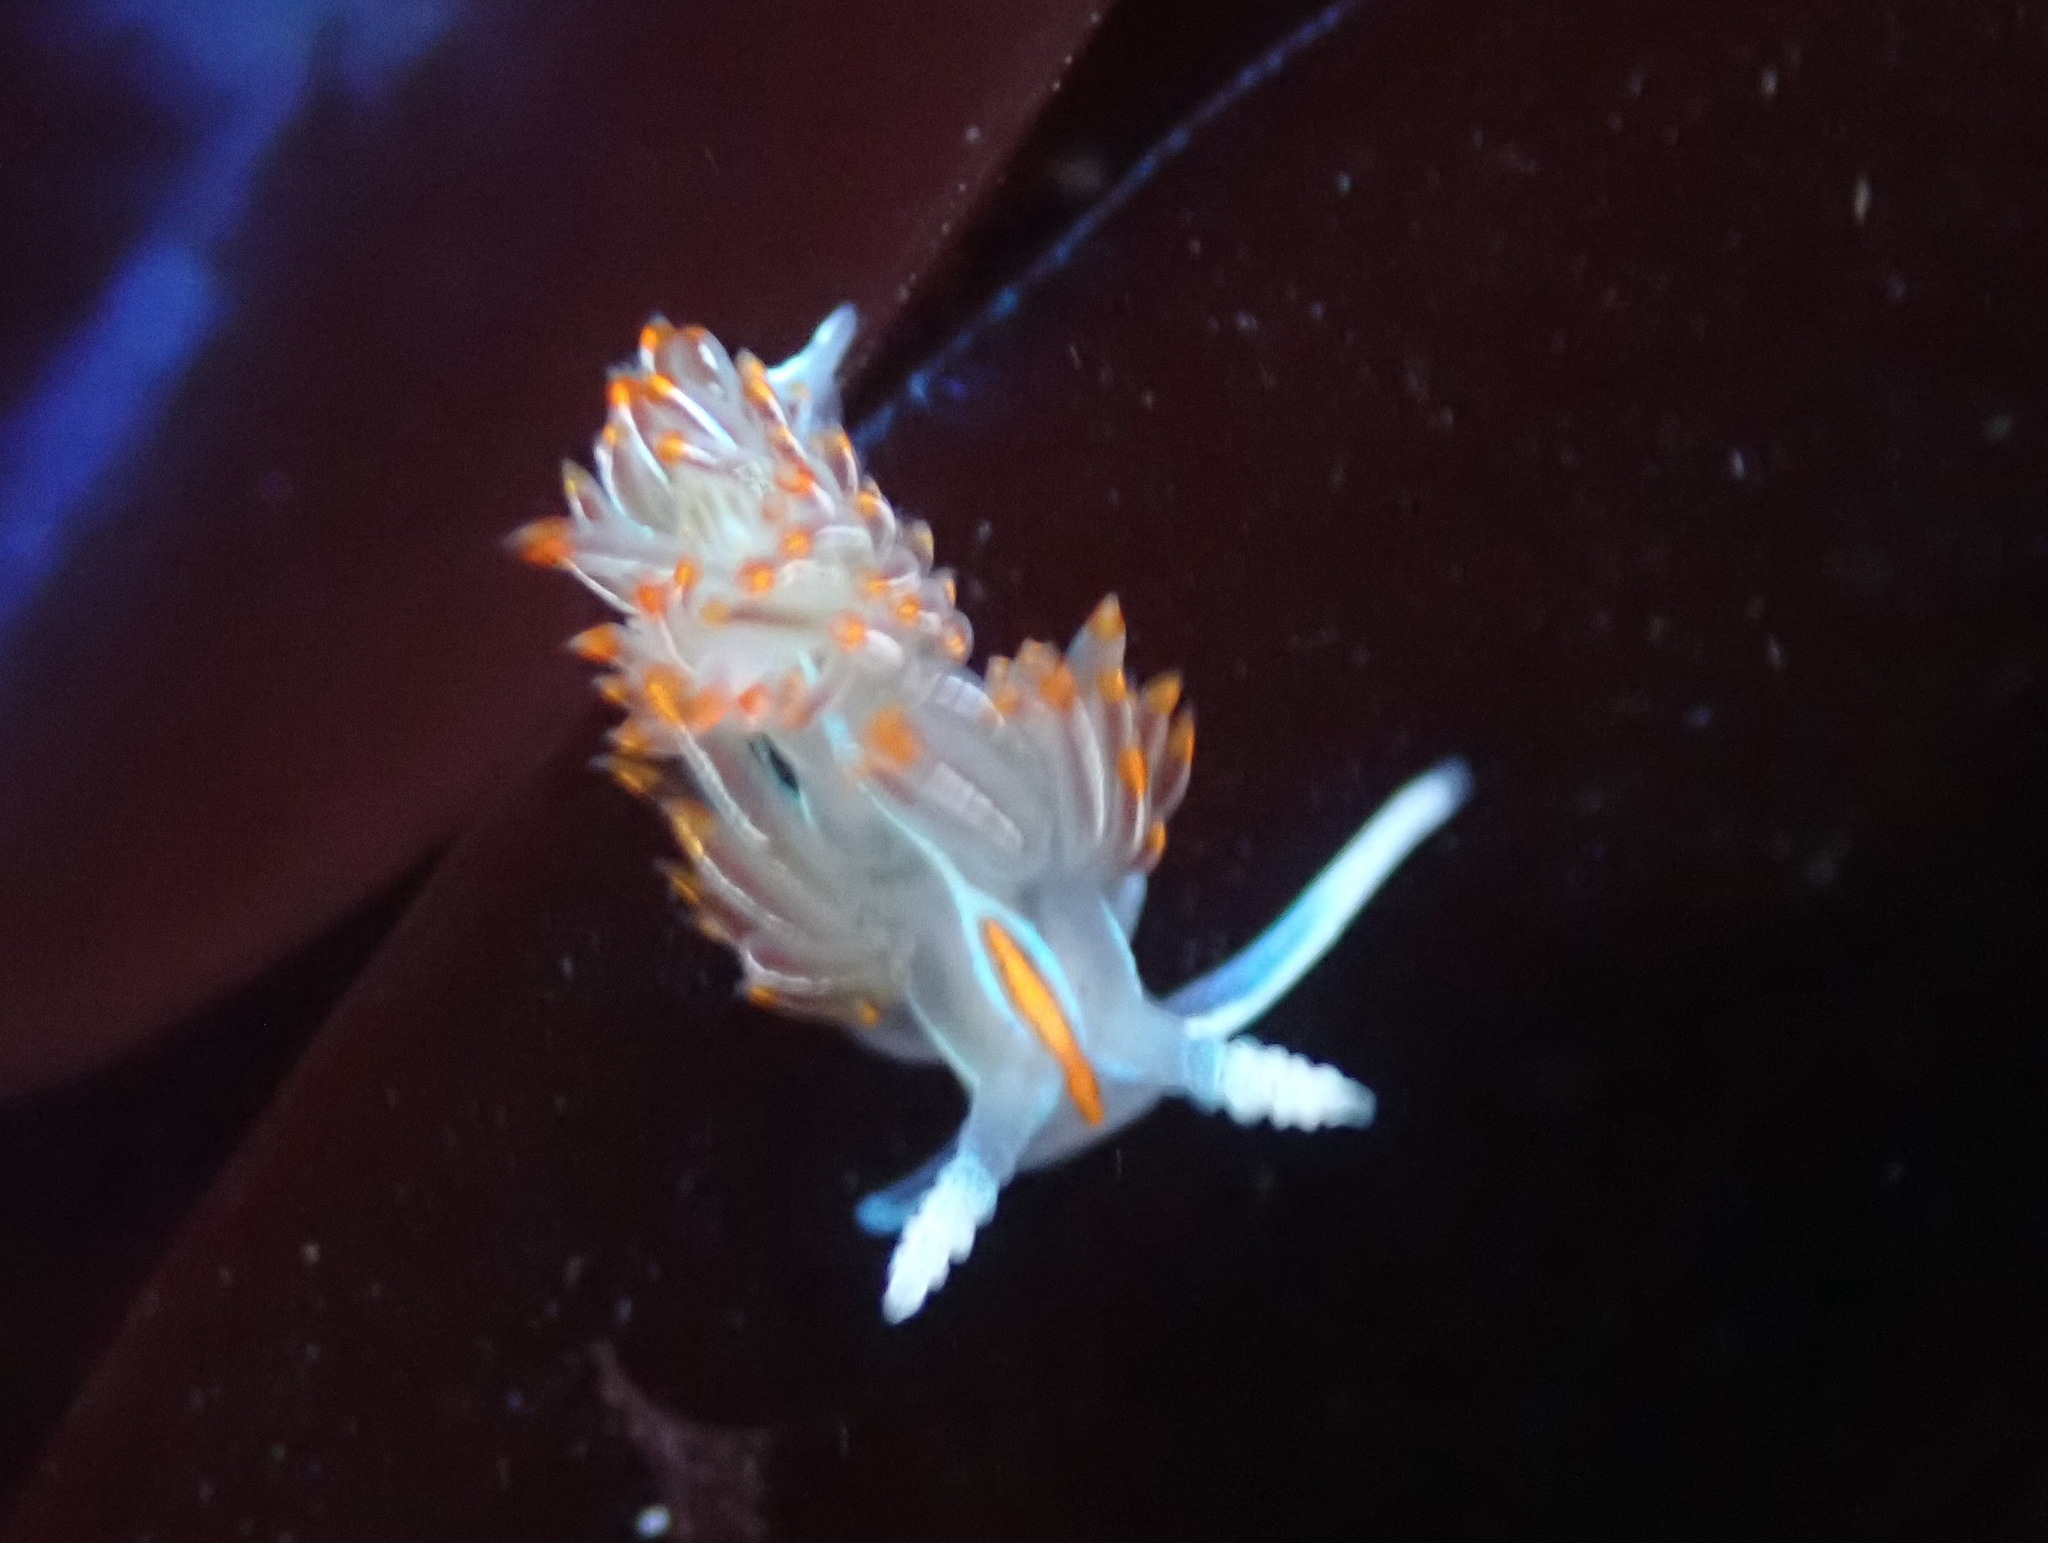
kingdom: Animalia
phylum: Mollusca
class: Gastropoda
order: Nudibranchia
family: Myrrhinidae
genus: Hermissenda
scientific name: Hermissenda crassicornis
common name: Hermissenda
